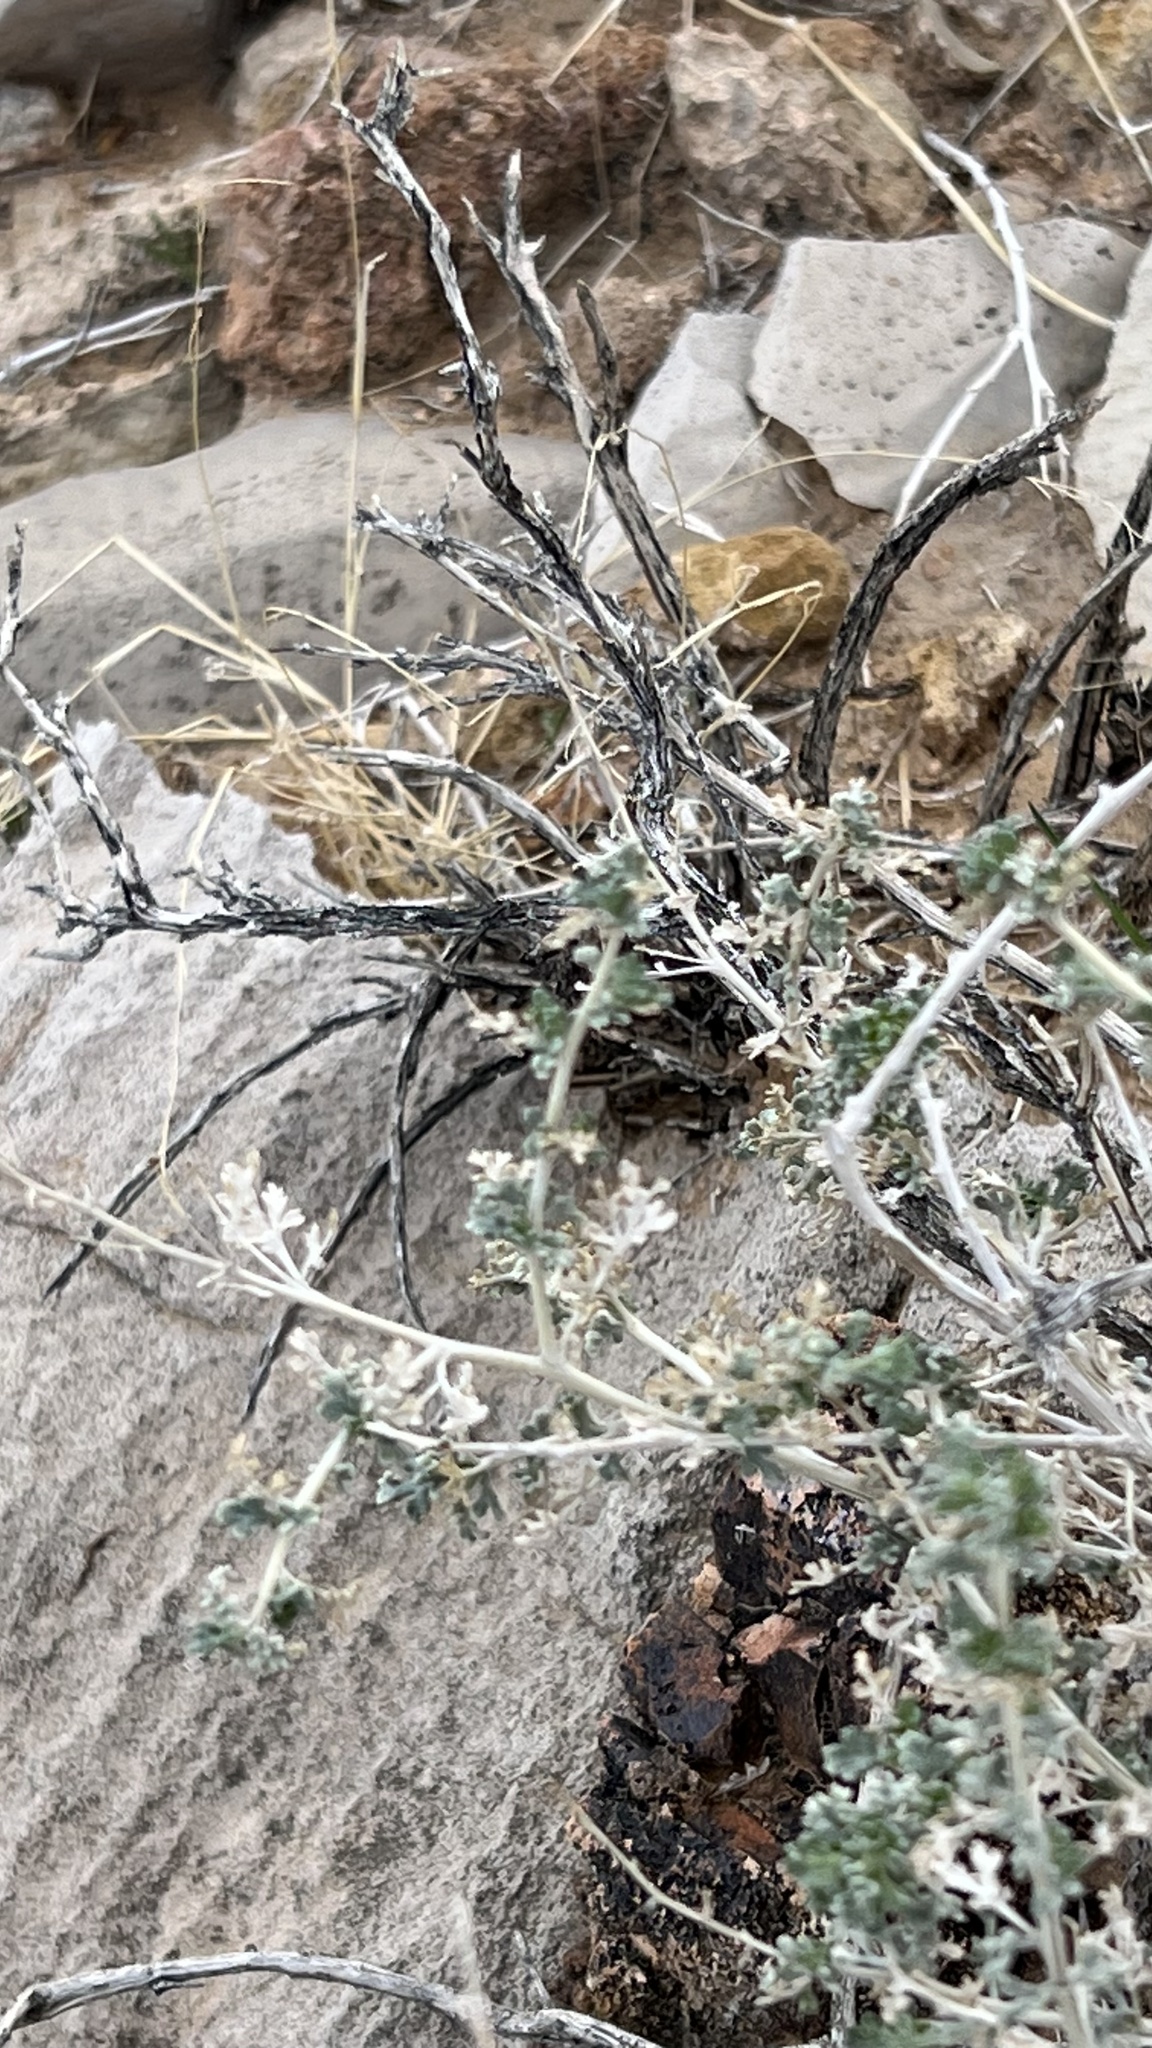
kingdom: Plantae
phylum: Tracheophyta
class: Magnoliopsida
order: Asterales
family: Asteraceae
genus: Ambrosia
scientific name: Ambrosia dumosa
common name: Bur-sage
